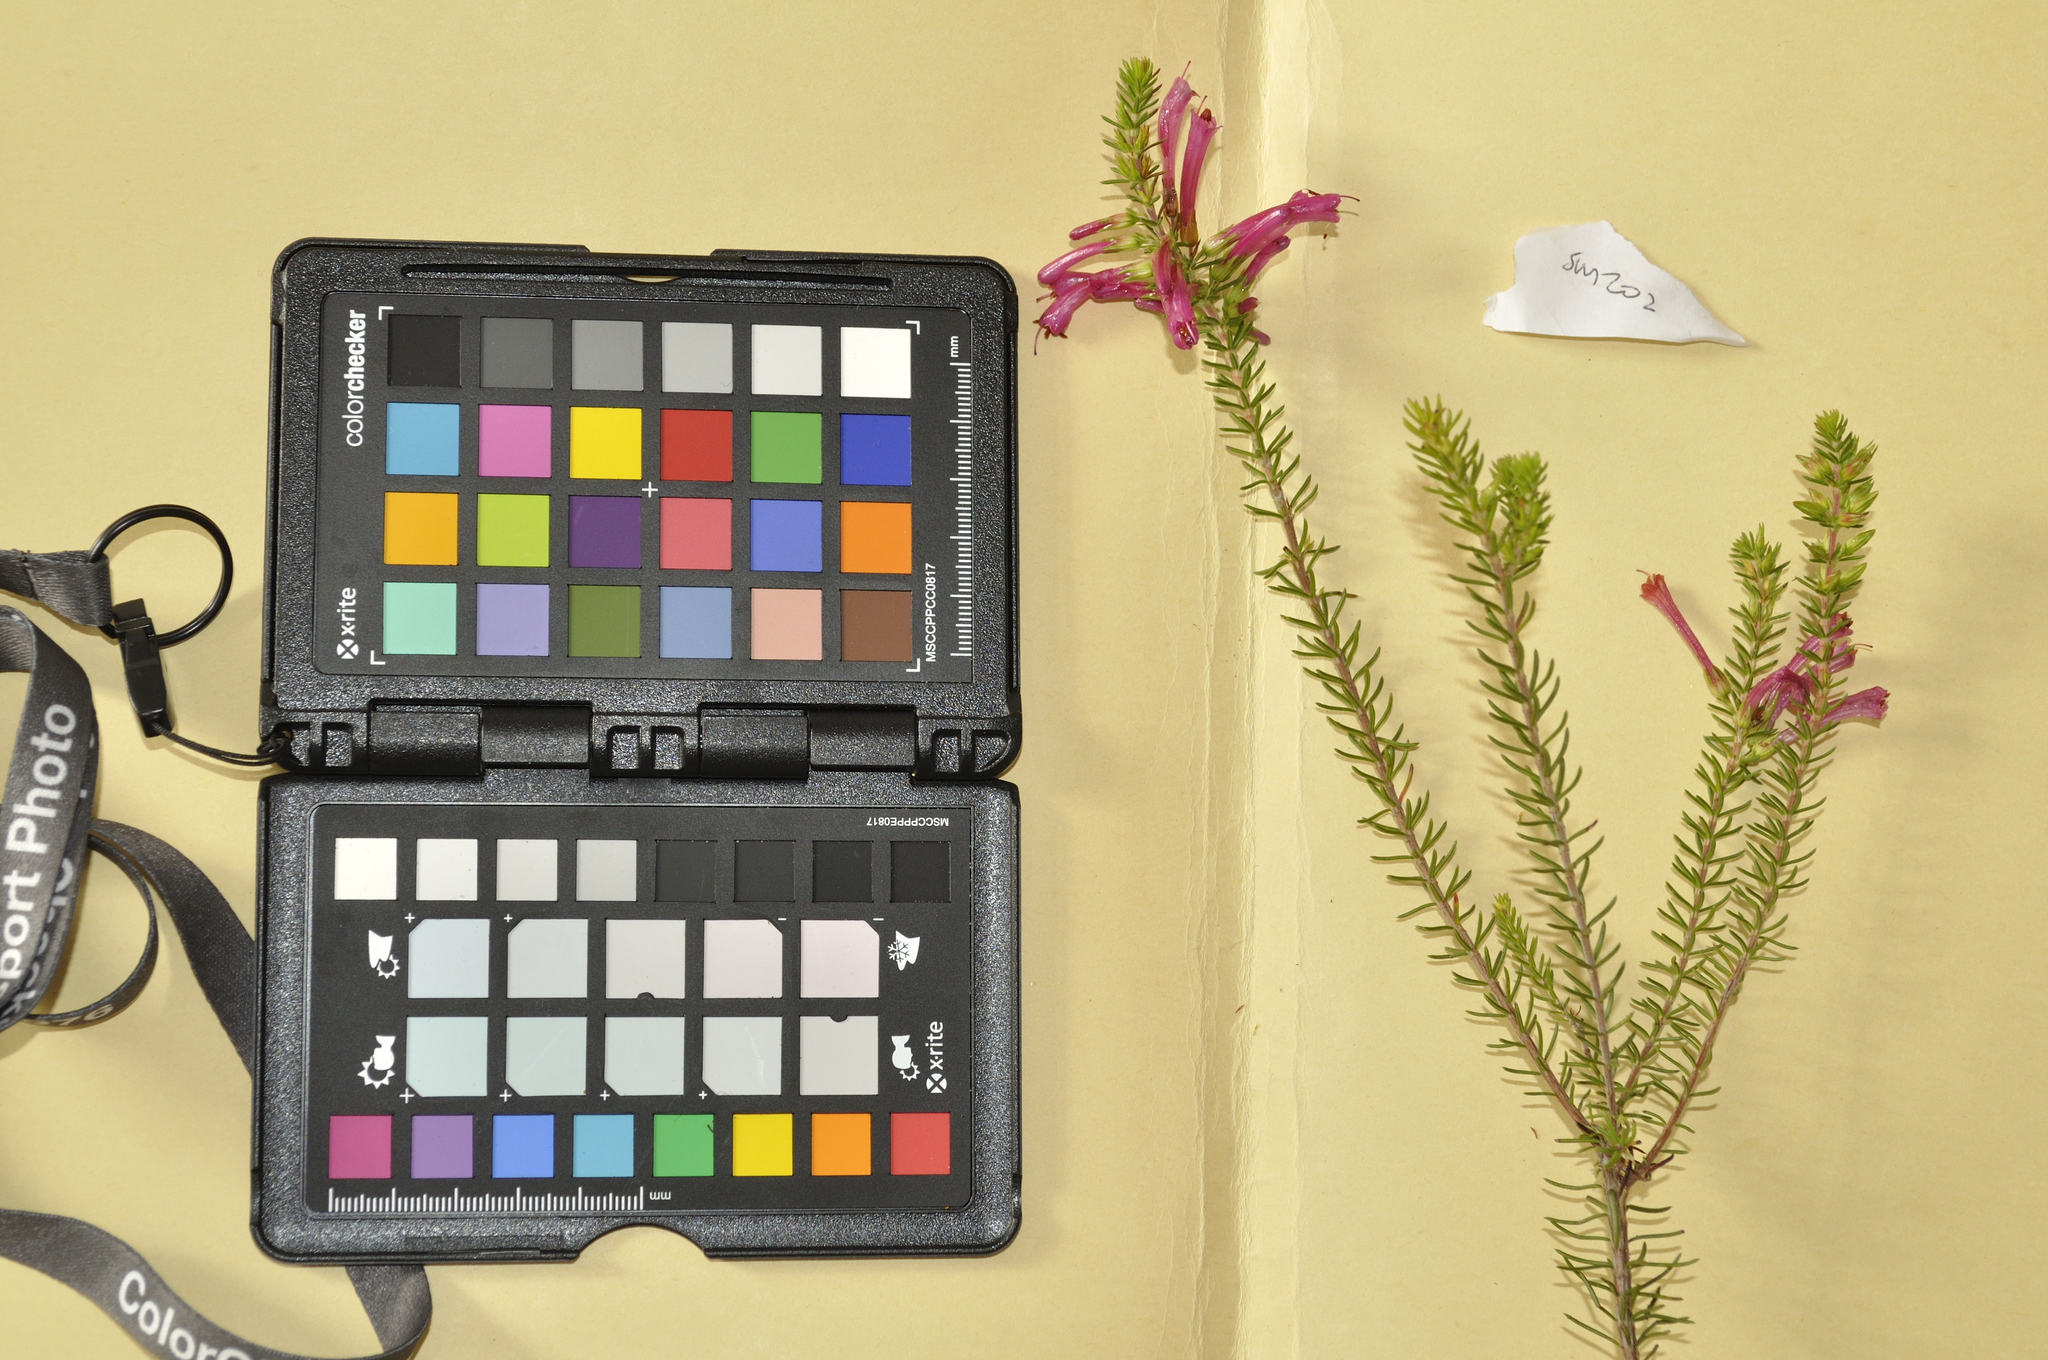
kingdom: Plantae
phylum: Tracheophyta
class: Magnoliopsida
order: Ericales
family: Ericaceae
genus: Erica
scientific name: Erica abietina
